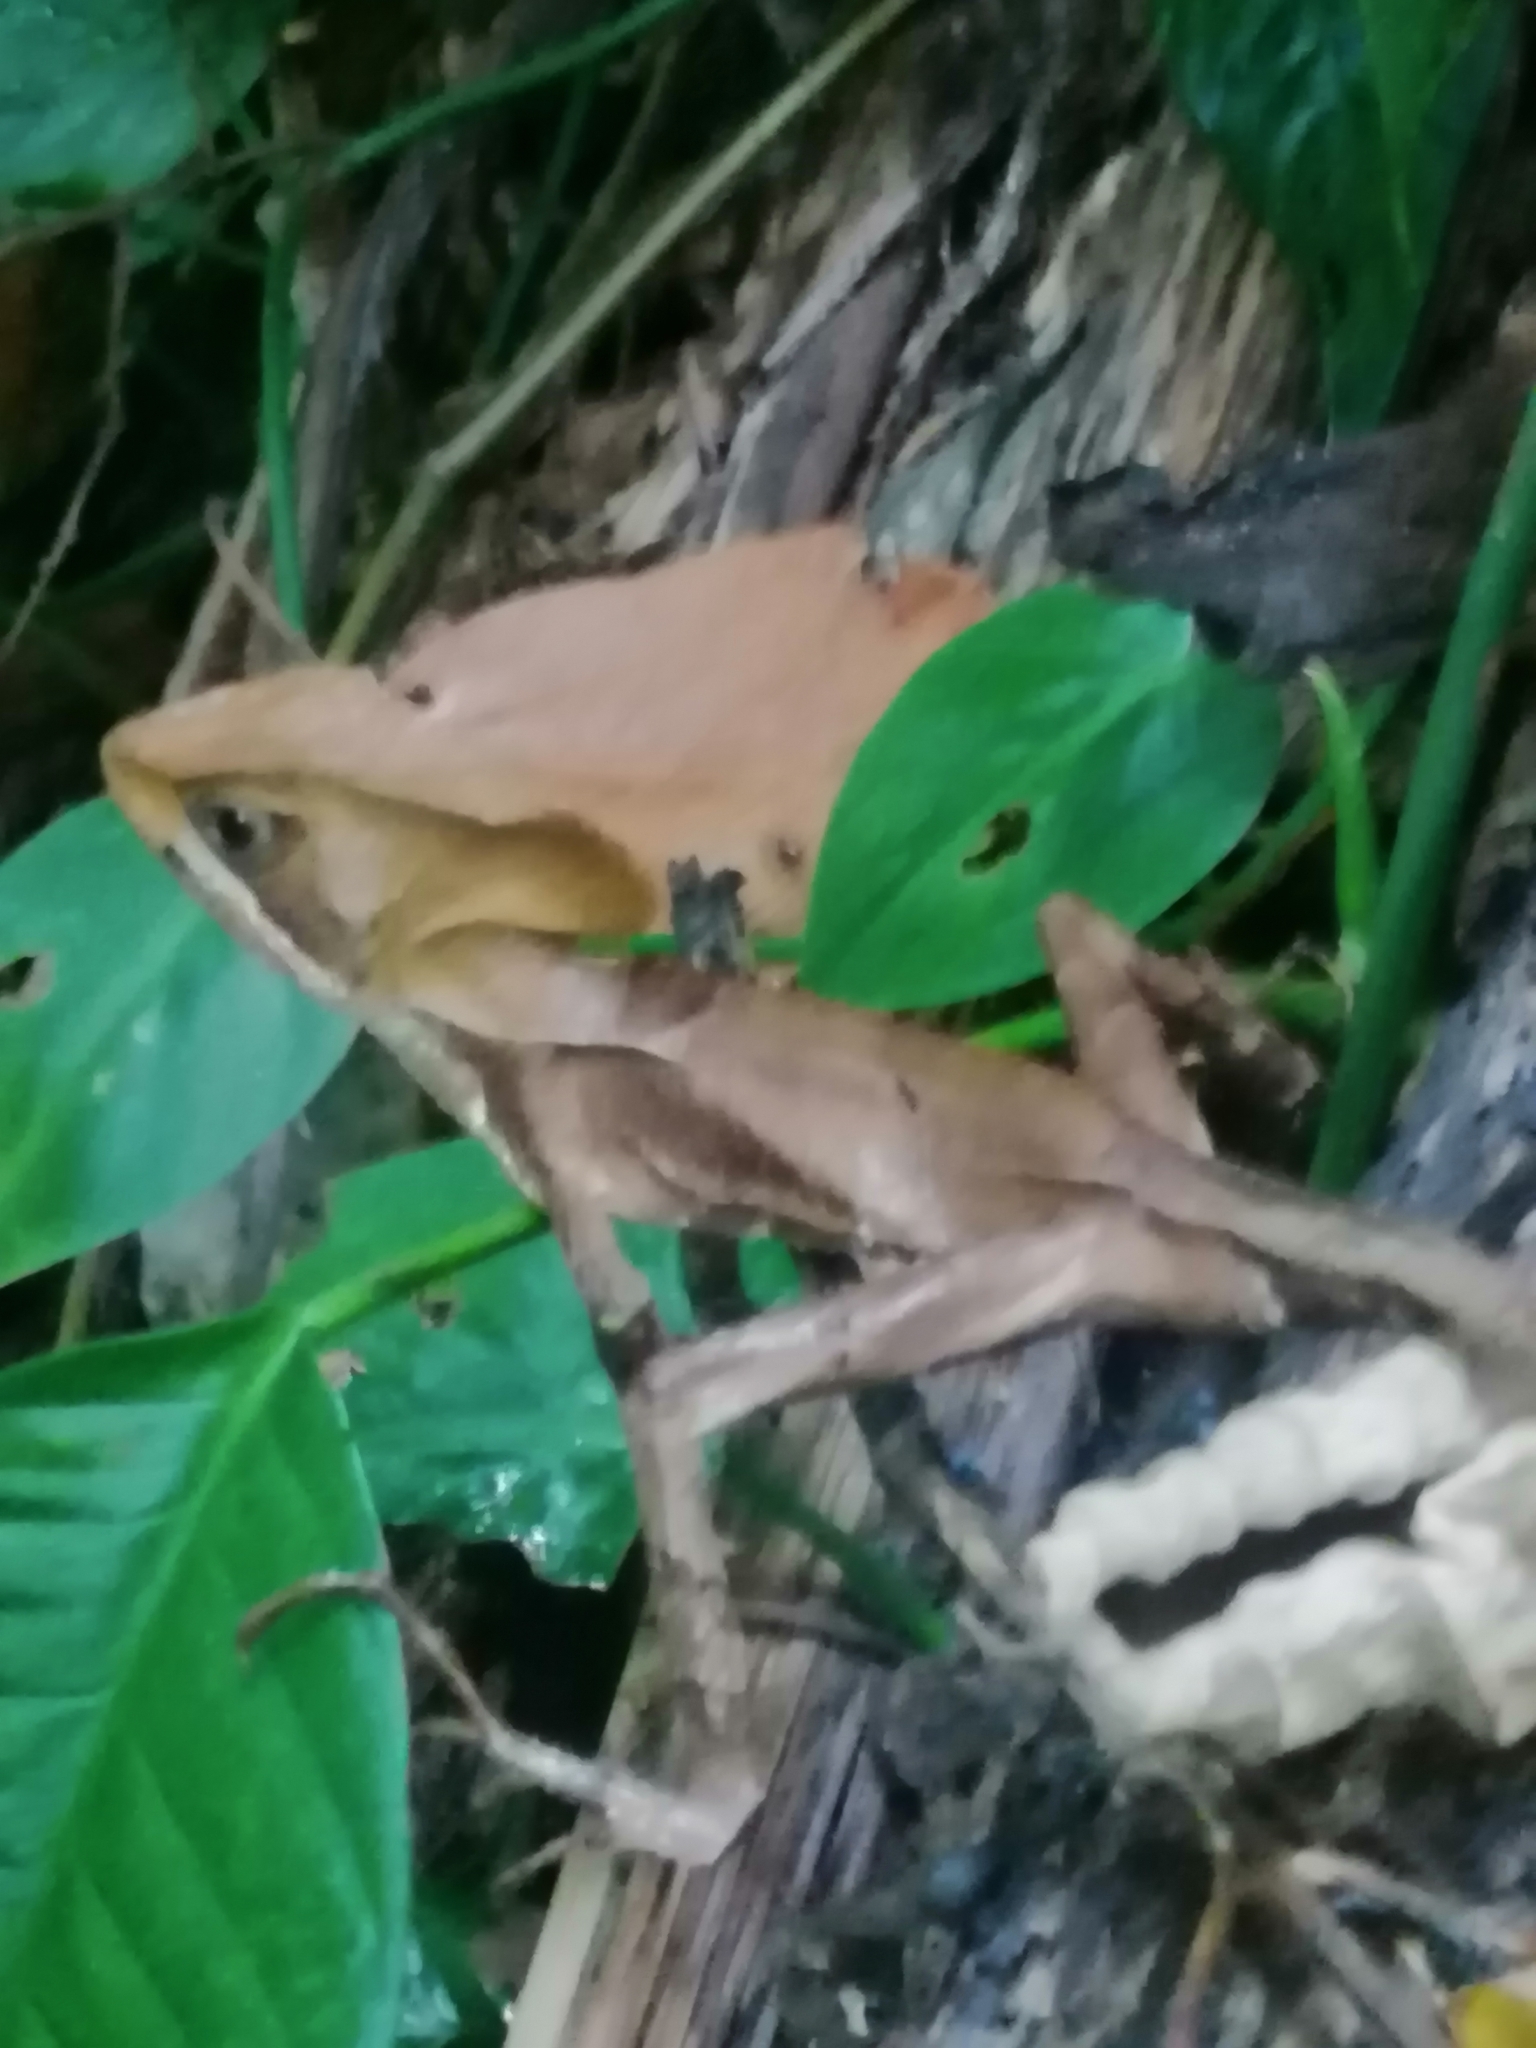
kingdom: Animalia
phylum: Chordata
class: Squamata
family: Corytophanidae
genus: Corytophanes
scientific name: Corytophanes hernandesii
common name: Hernandez’s helmeted basilisk
